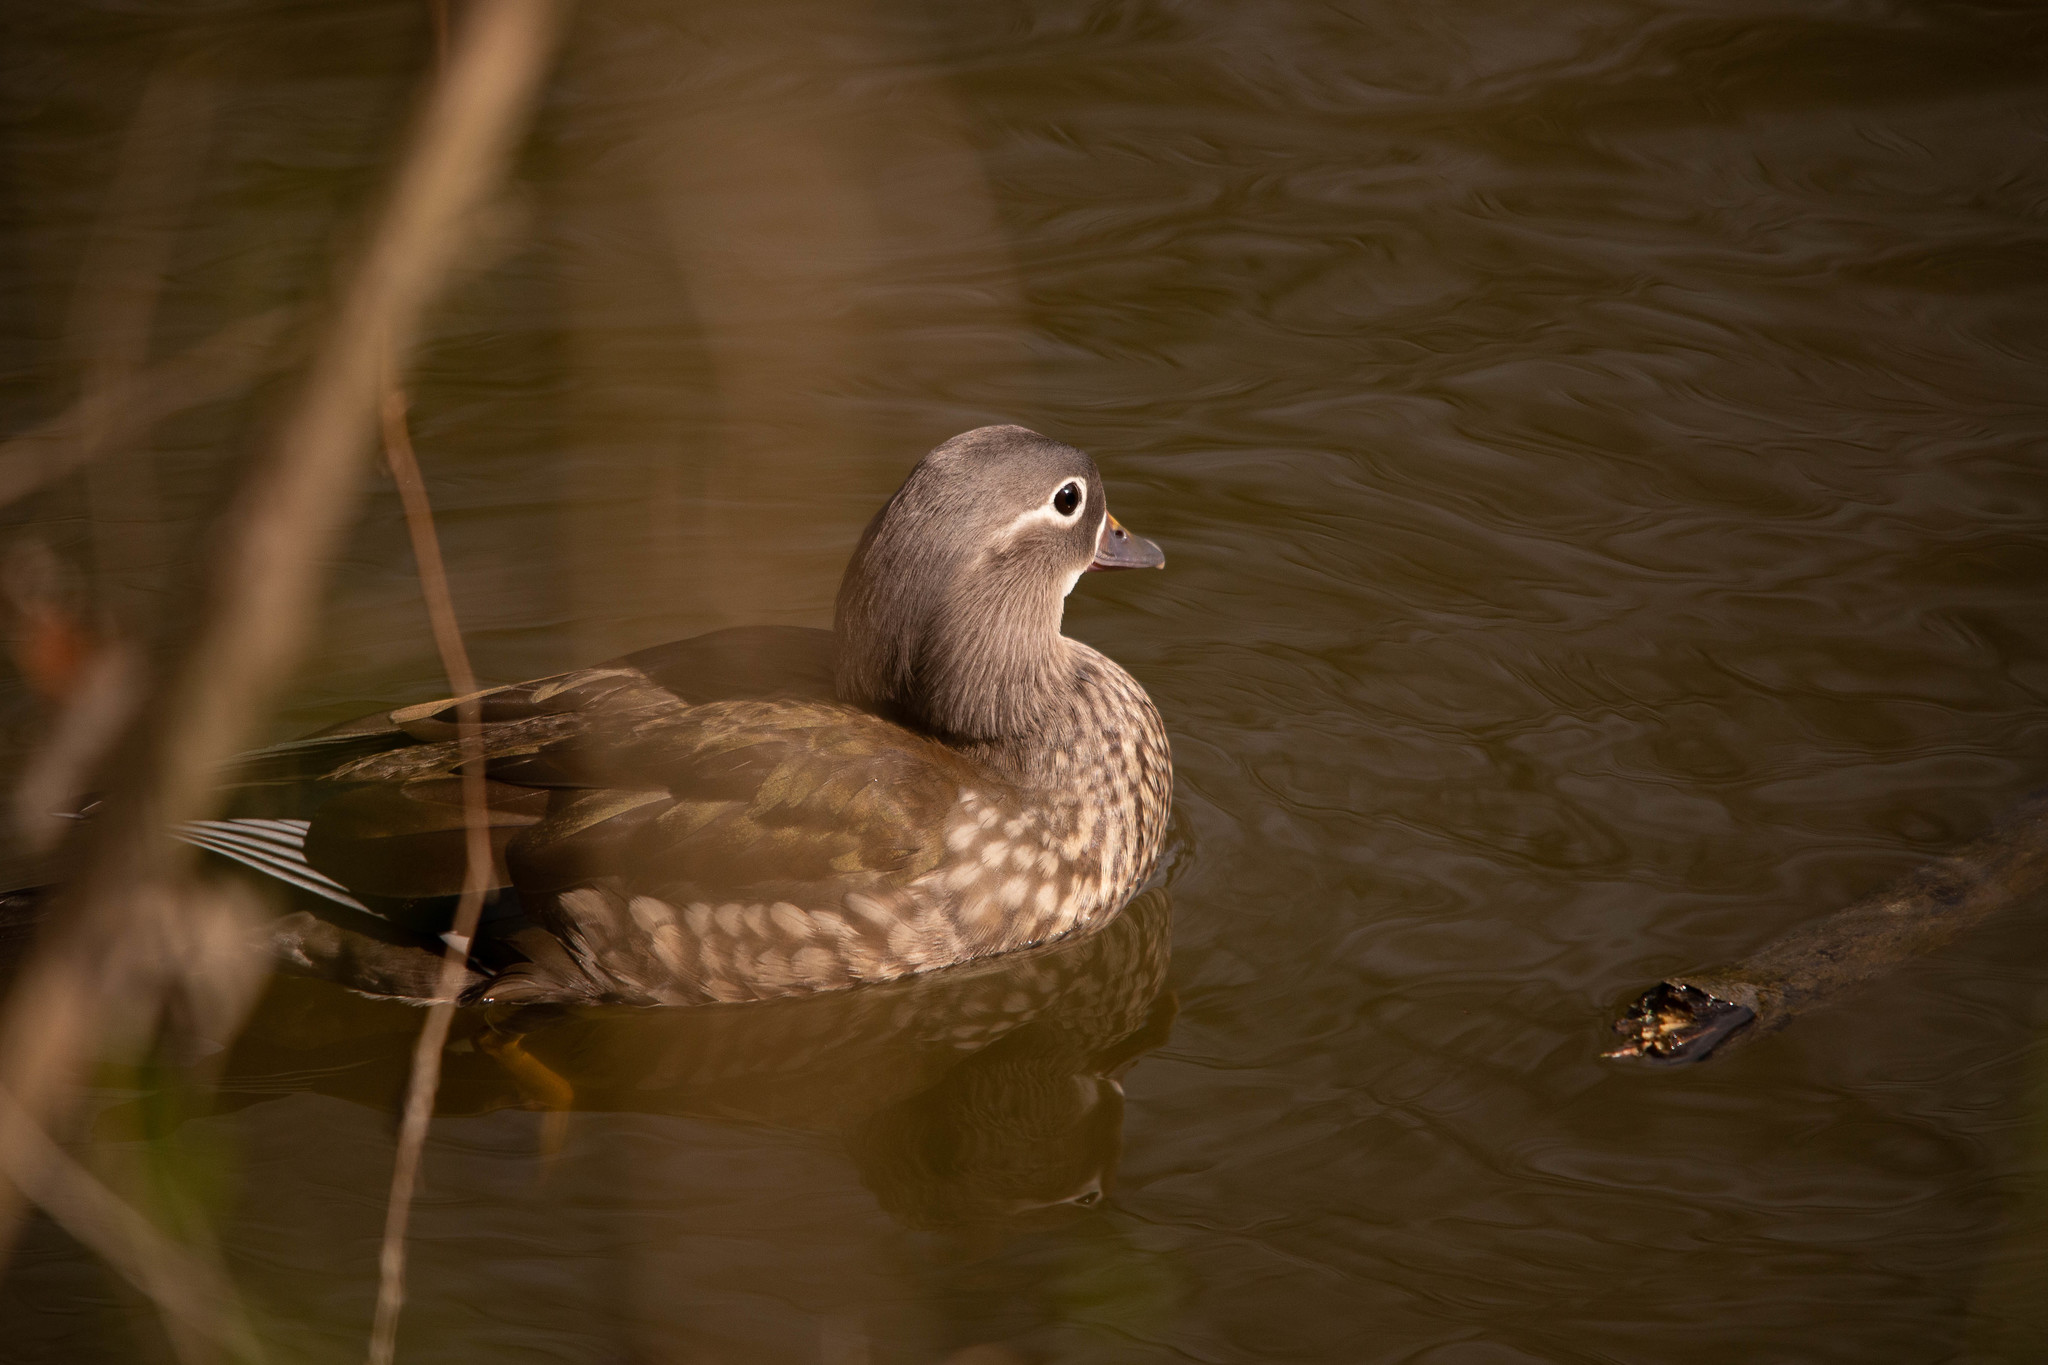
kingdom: Animalia
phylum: Chordata
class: Aves
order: Anseriformes
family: Anatidae
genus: Aix
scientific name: Aix galericulata
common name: Mandarin duck
